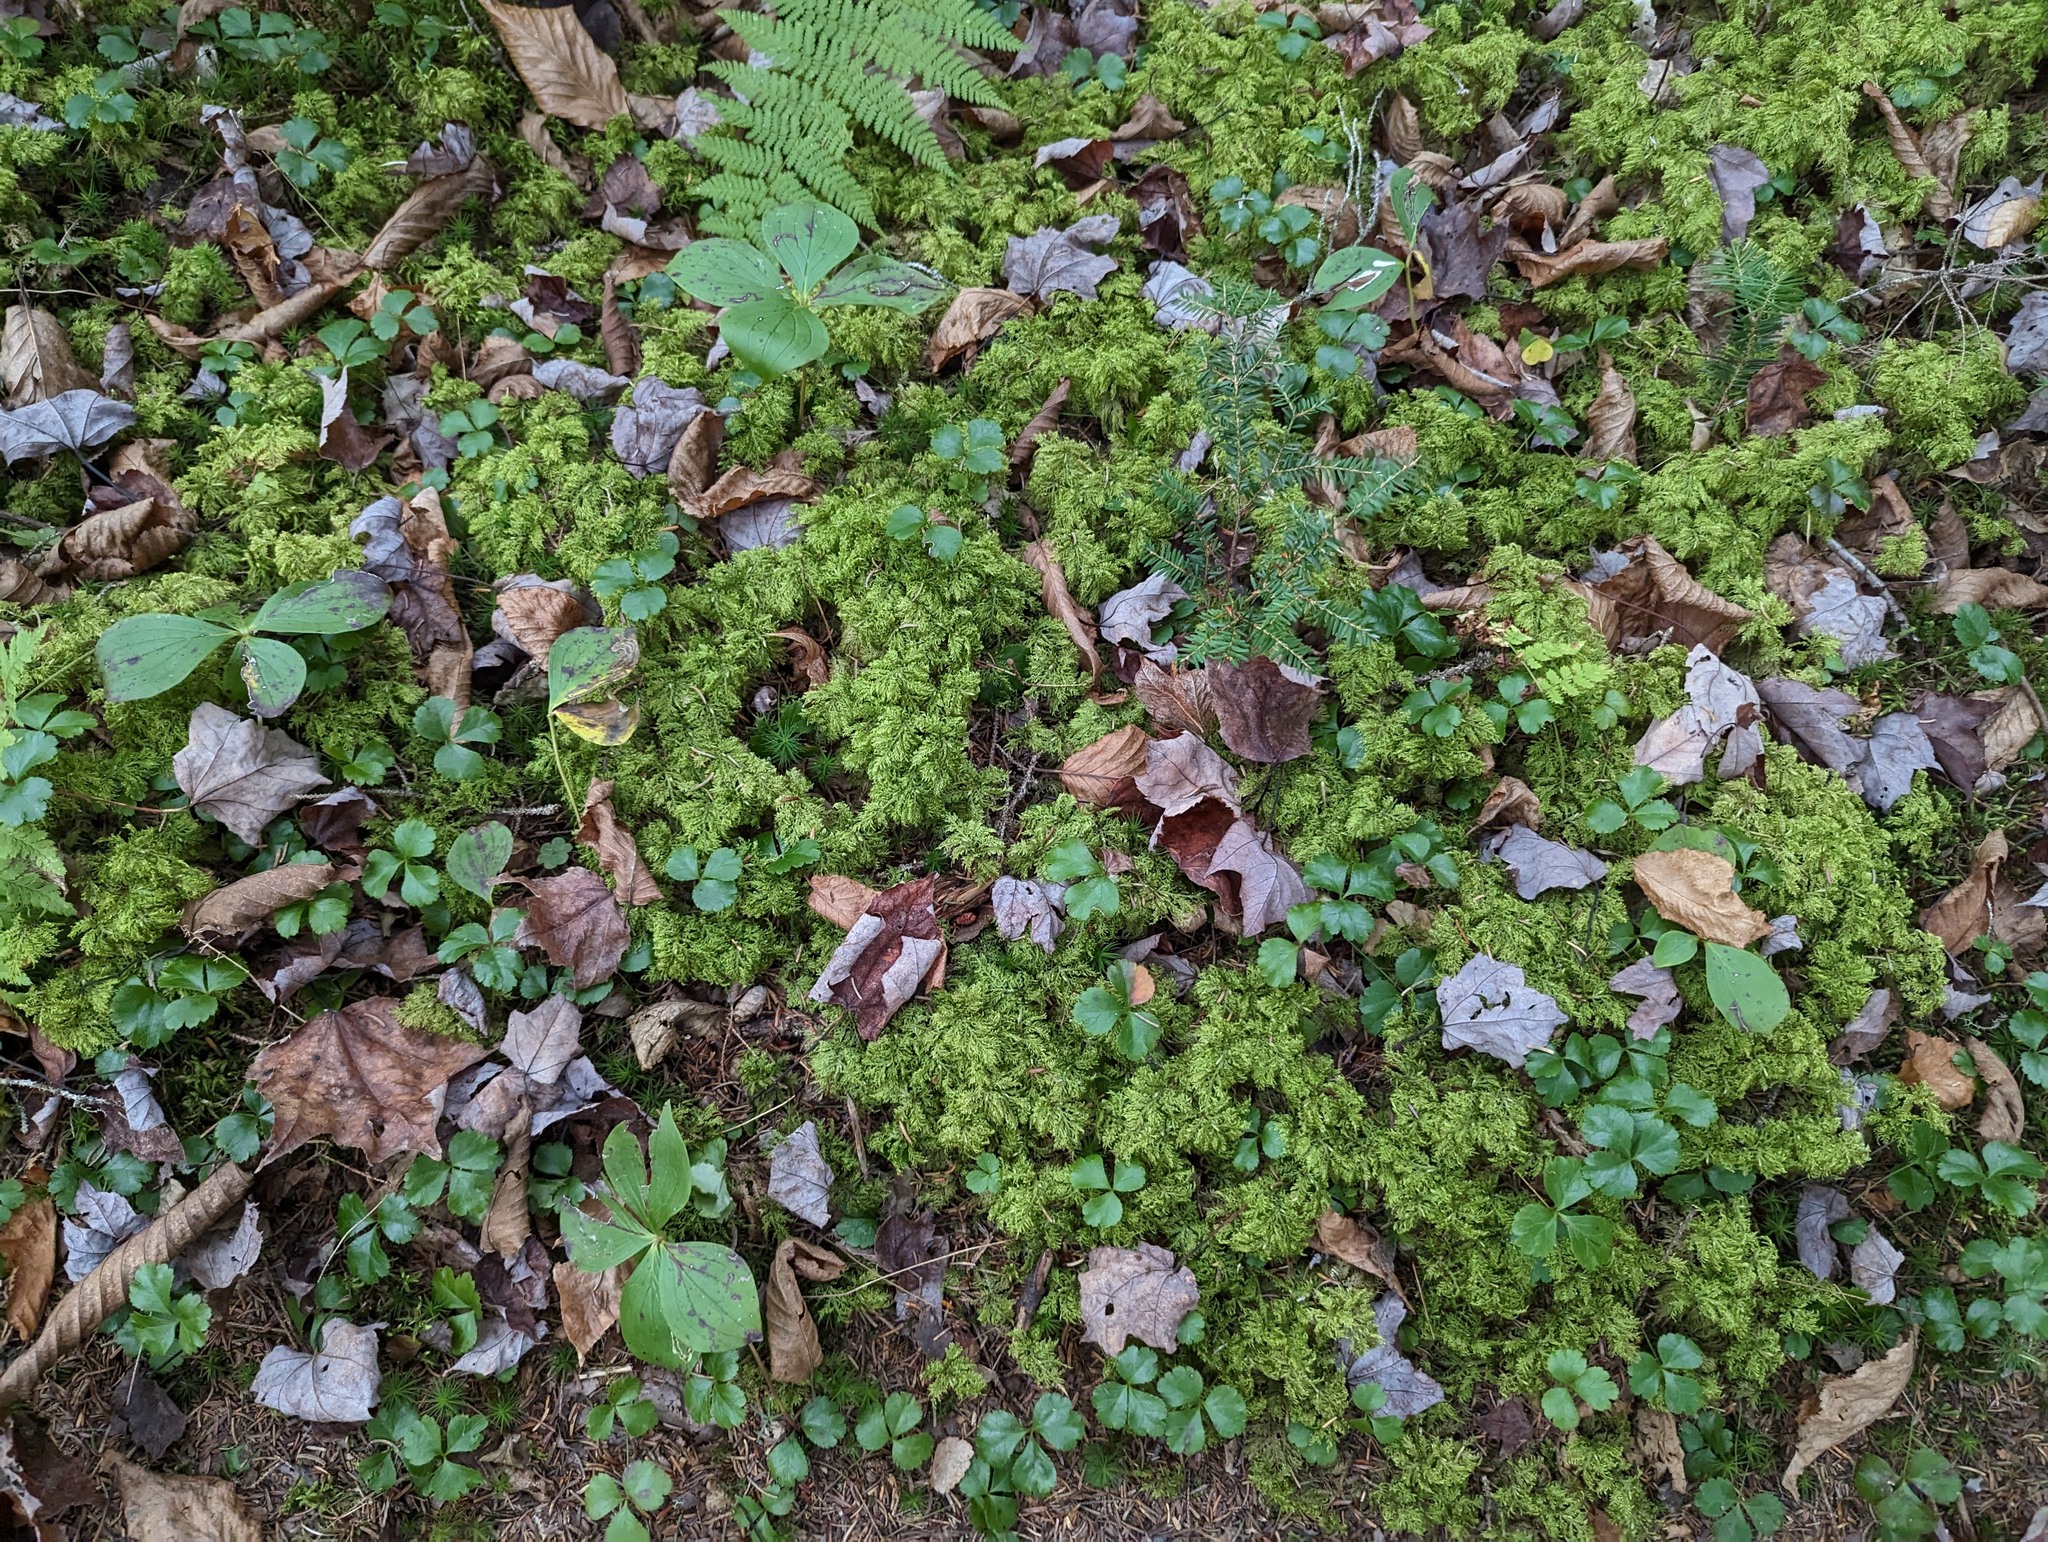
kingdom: Plantae
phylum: Tracheophyta
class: Magnoliopsida
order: Ranunculales
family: Ranunculaceae
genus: Coptis
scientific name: Coptis trifolia
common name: Canker-root
